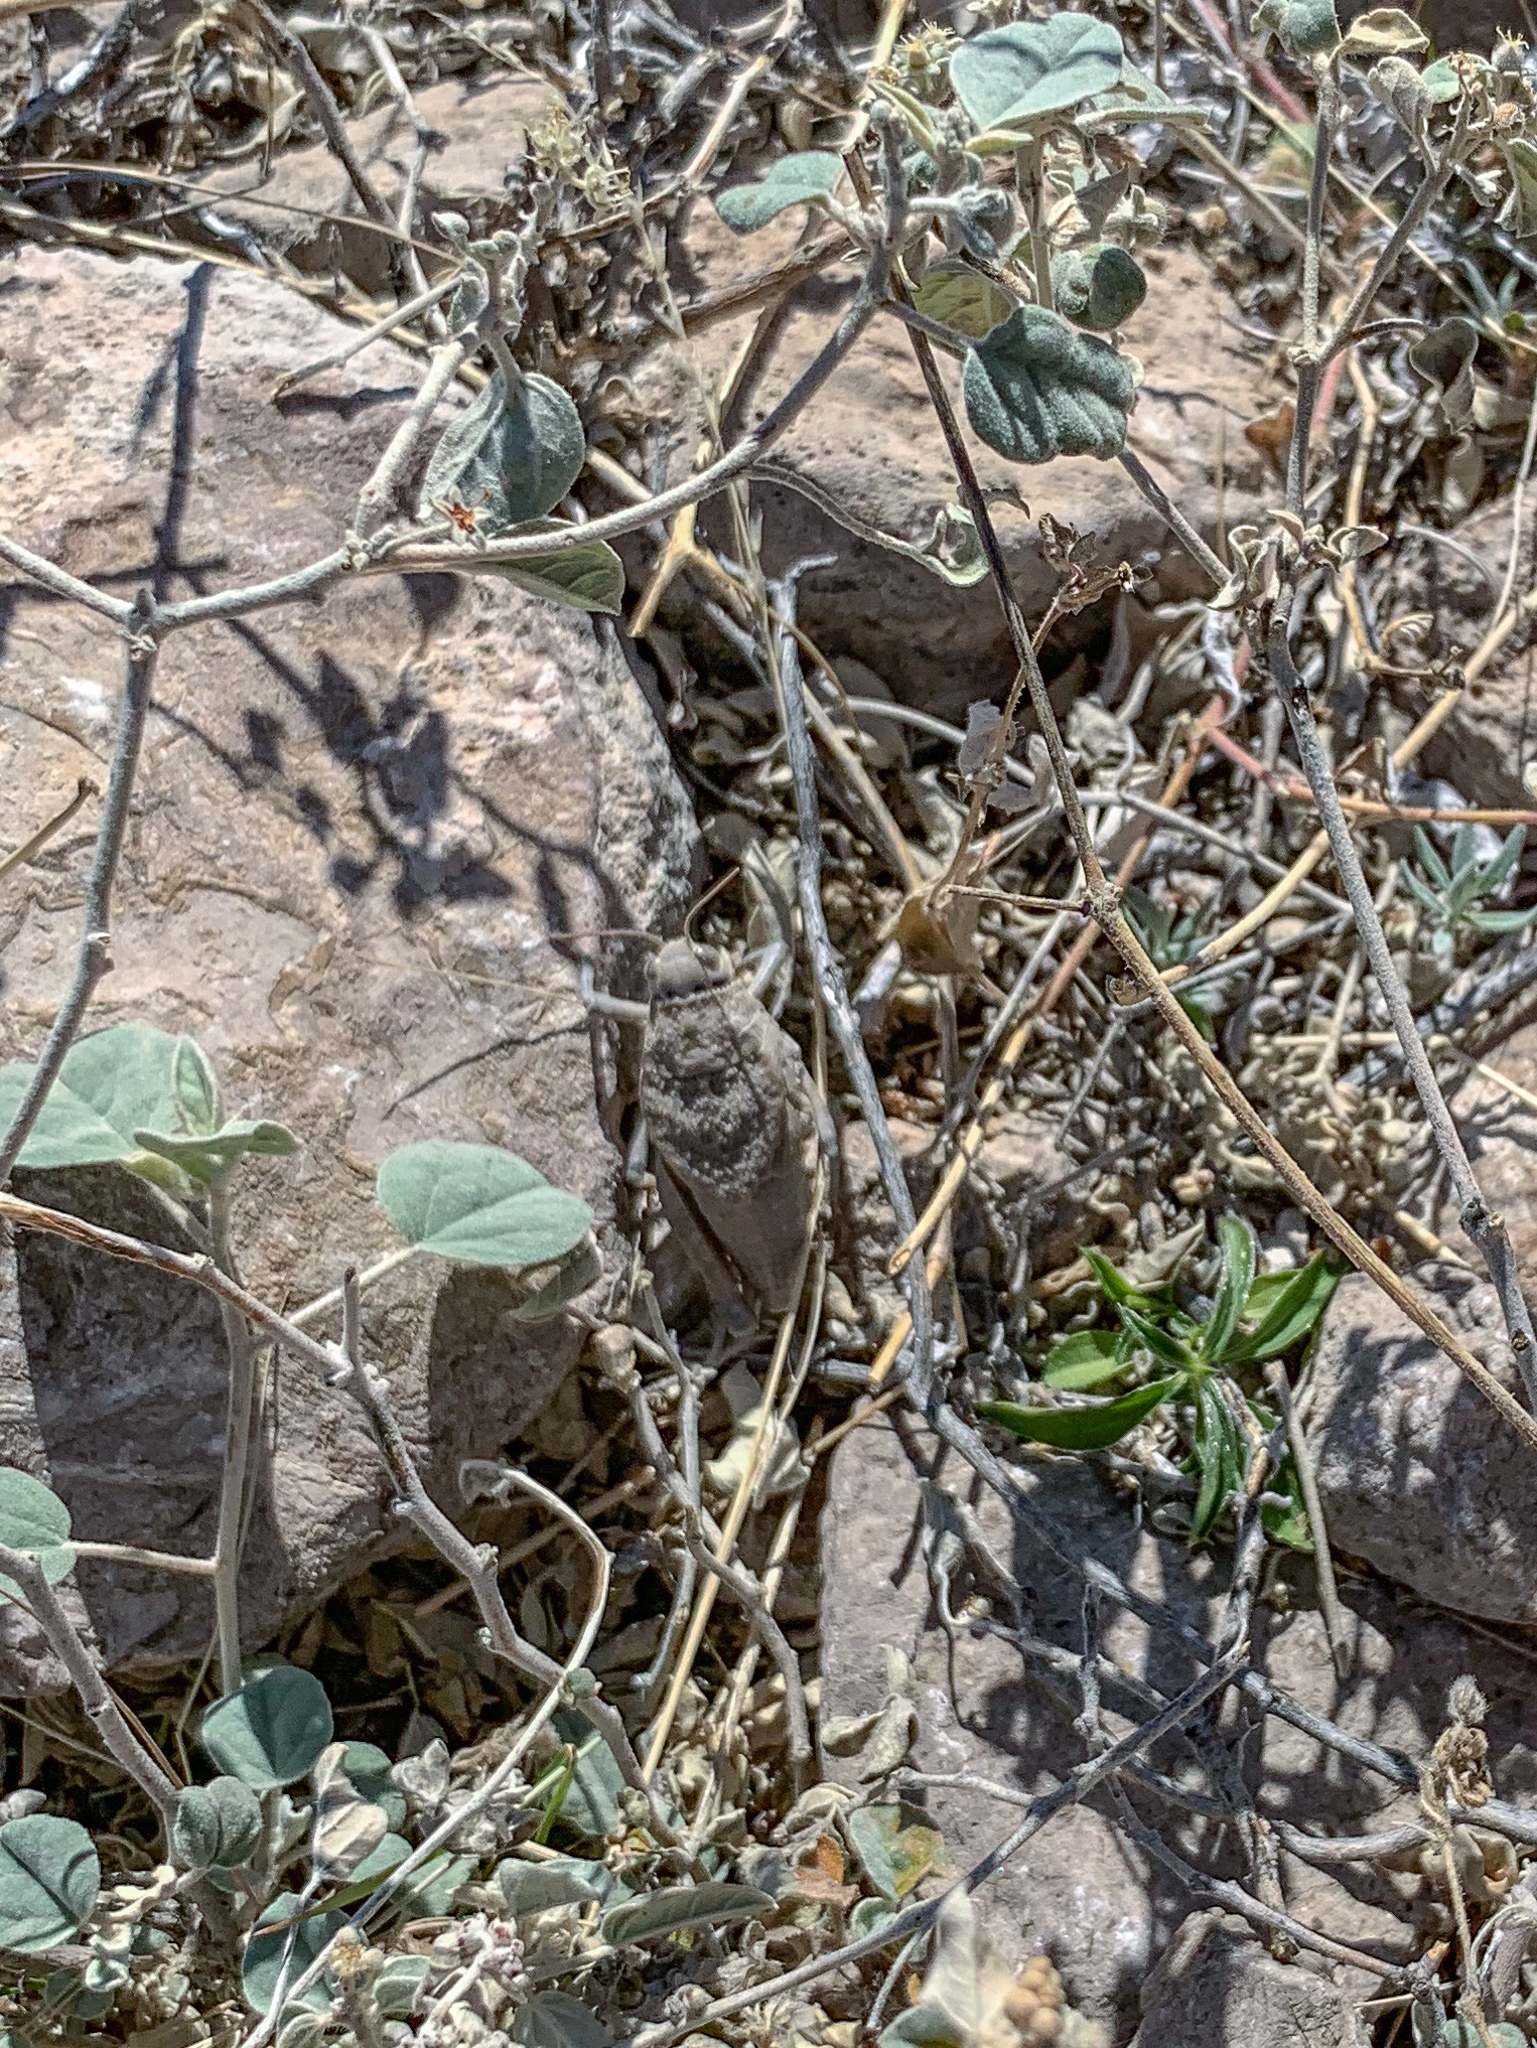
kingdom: Animalia
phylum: Arthropoda
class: Insecta
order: Orthoptera
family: Romaleidae
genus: Phrynotettix
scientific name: Phrynotettix robustus
